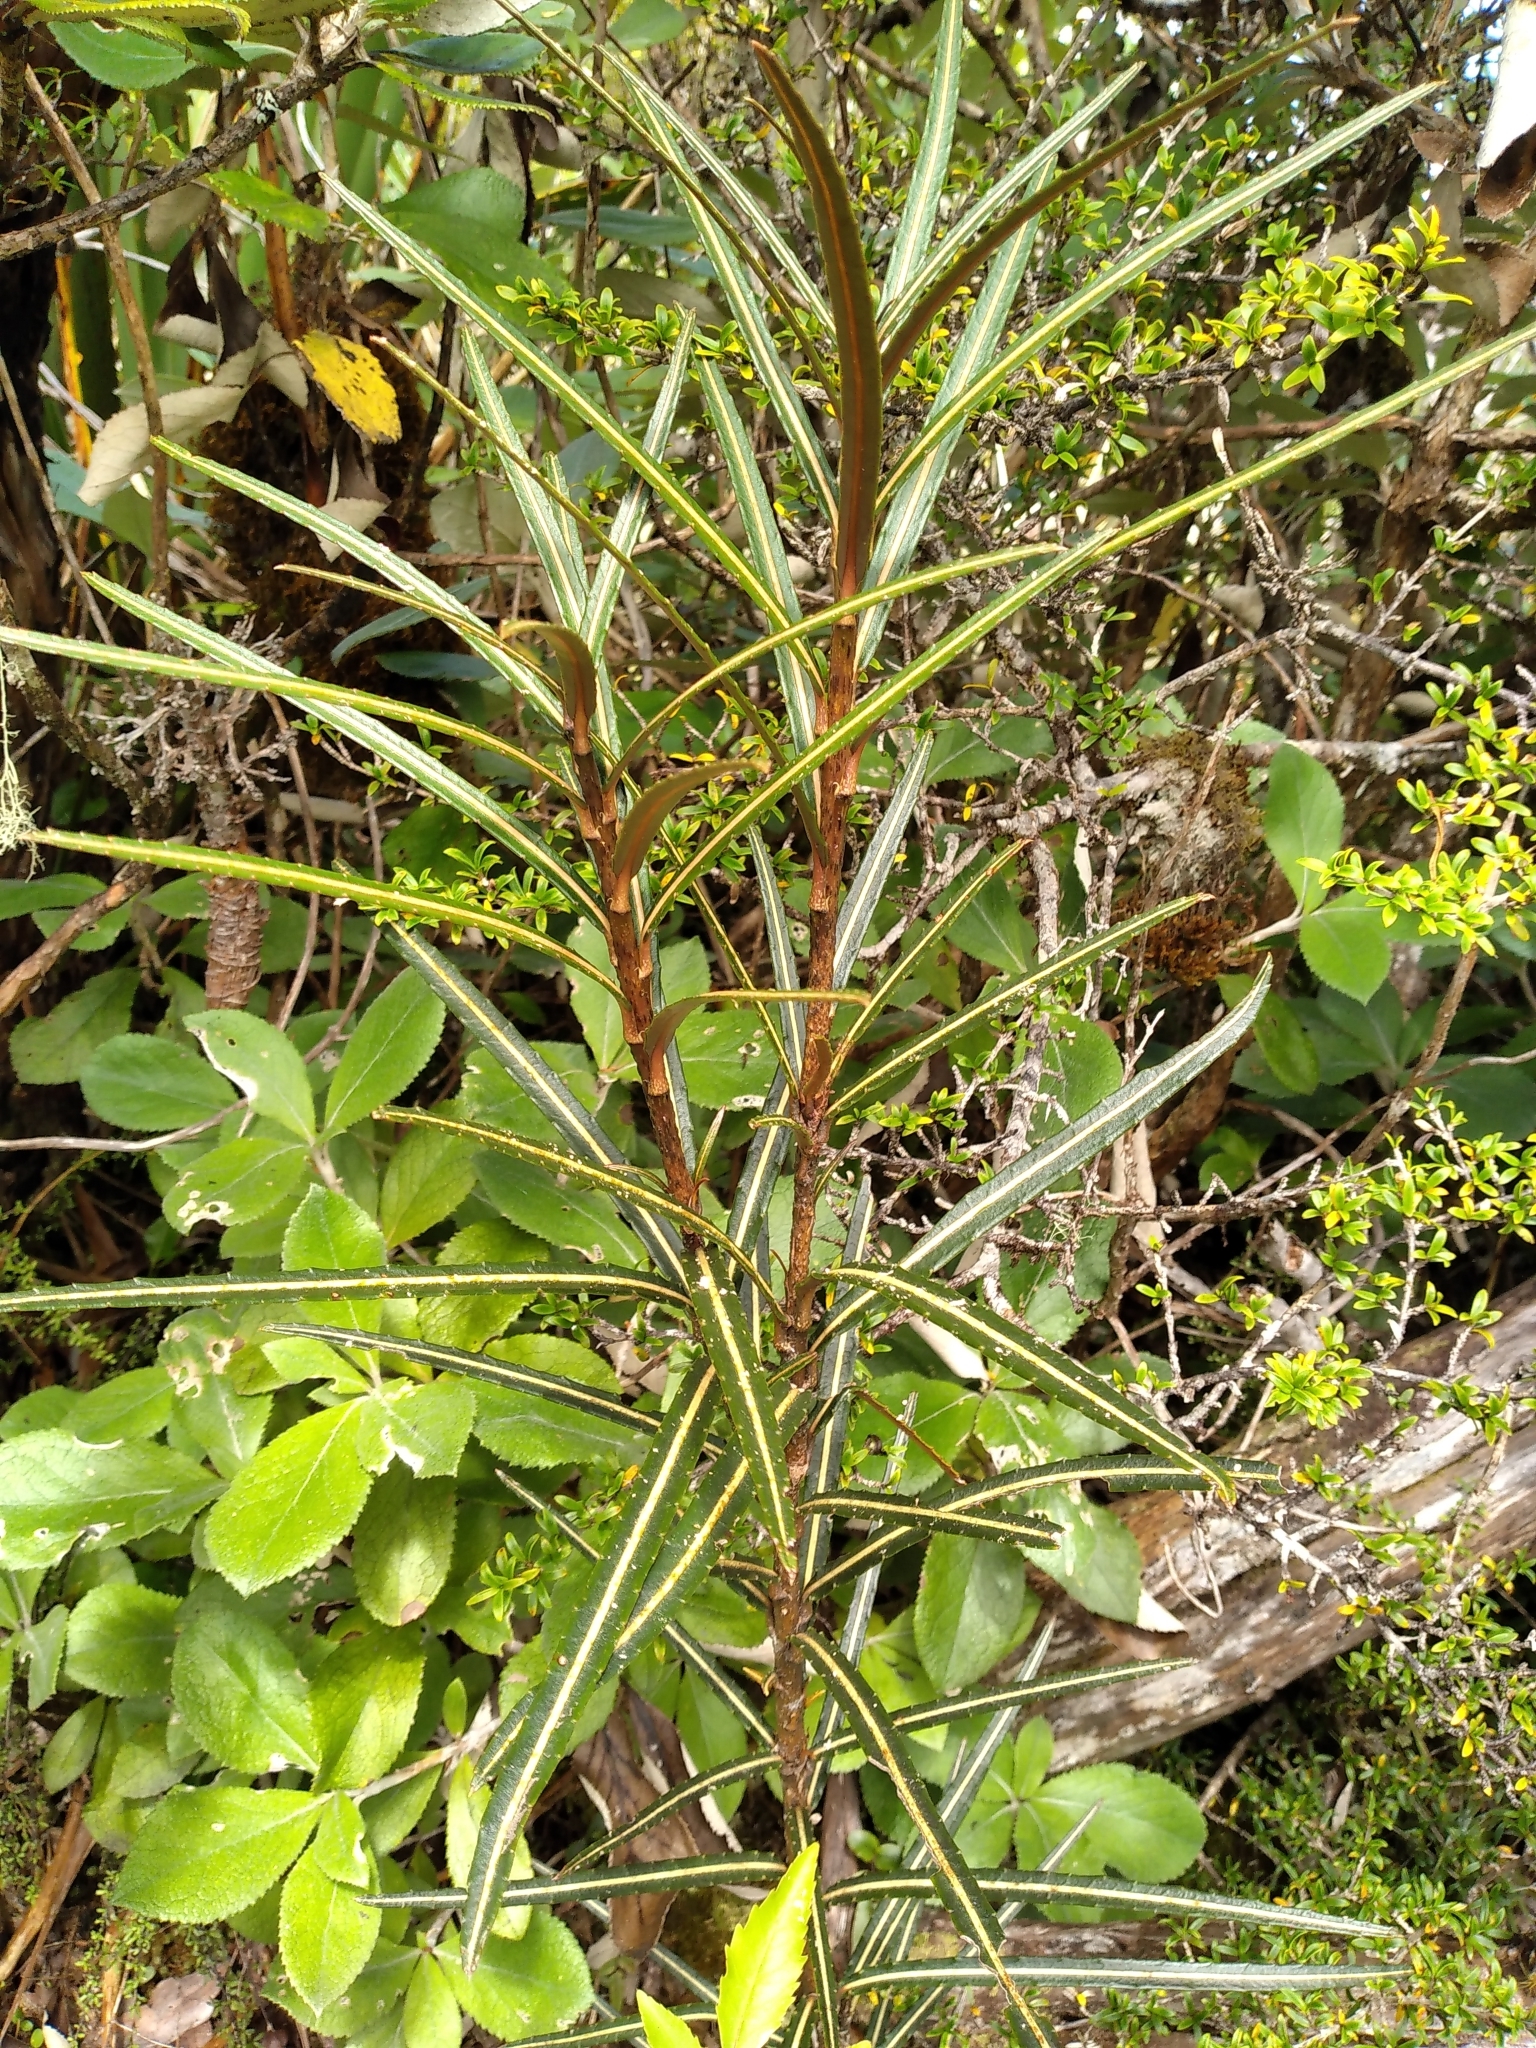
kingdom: Plantae
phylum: Tracheophyta
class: Magnoliopsida
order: Apiales
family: Araliaceae
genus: Pseudopanax
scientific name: Pseudopanax linearis
